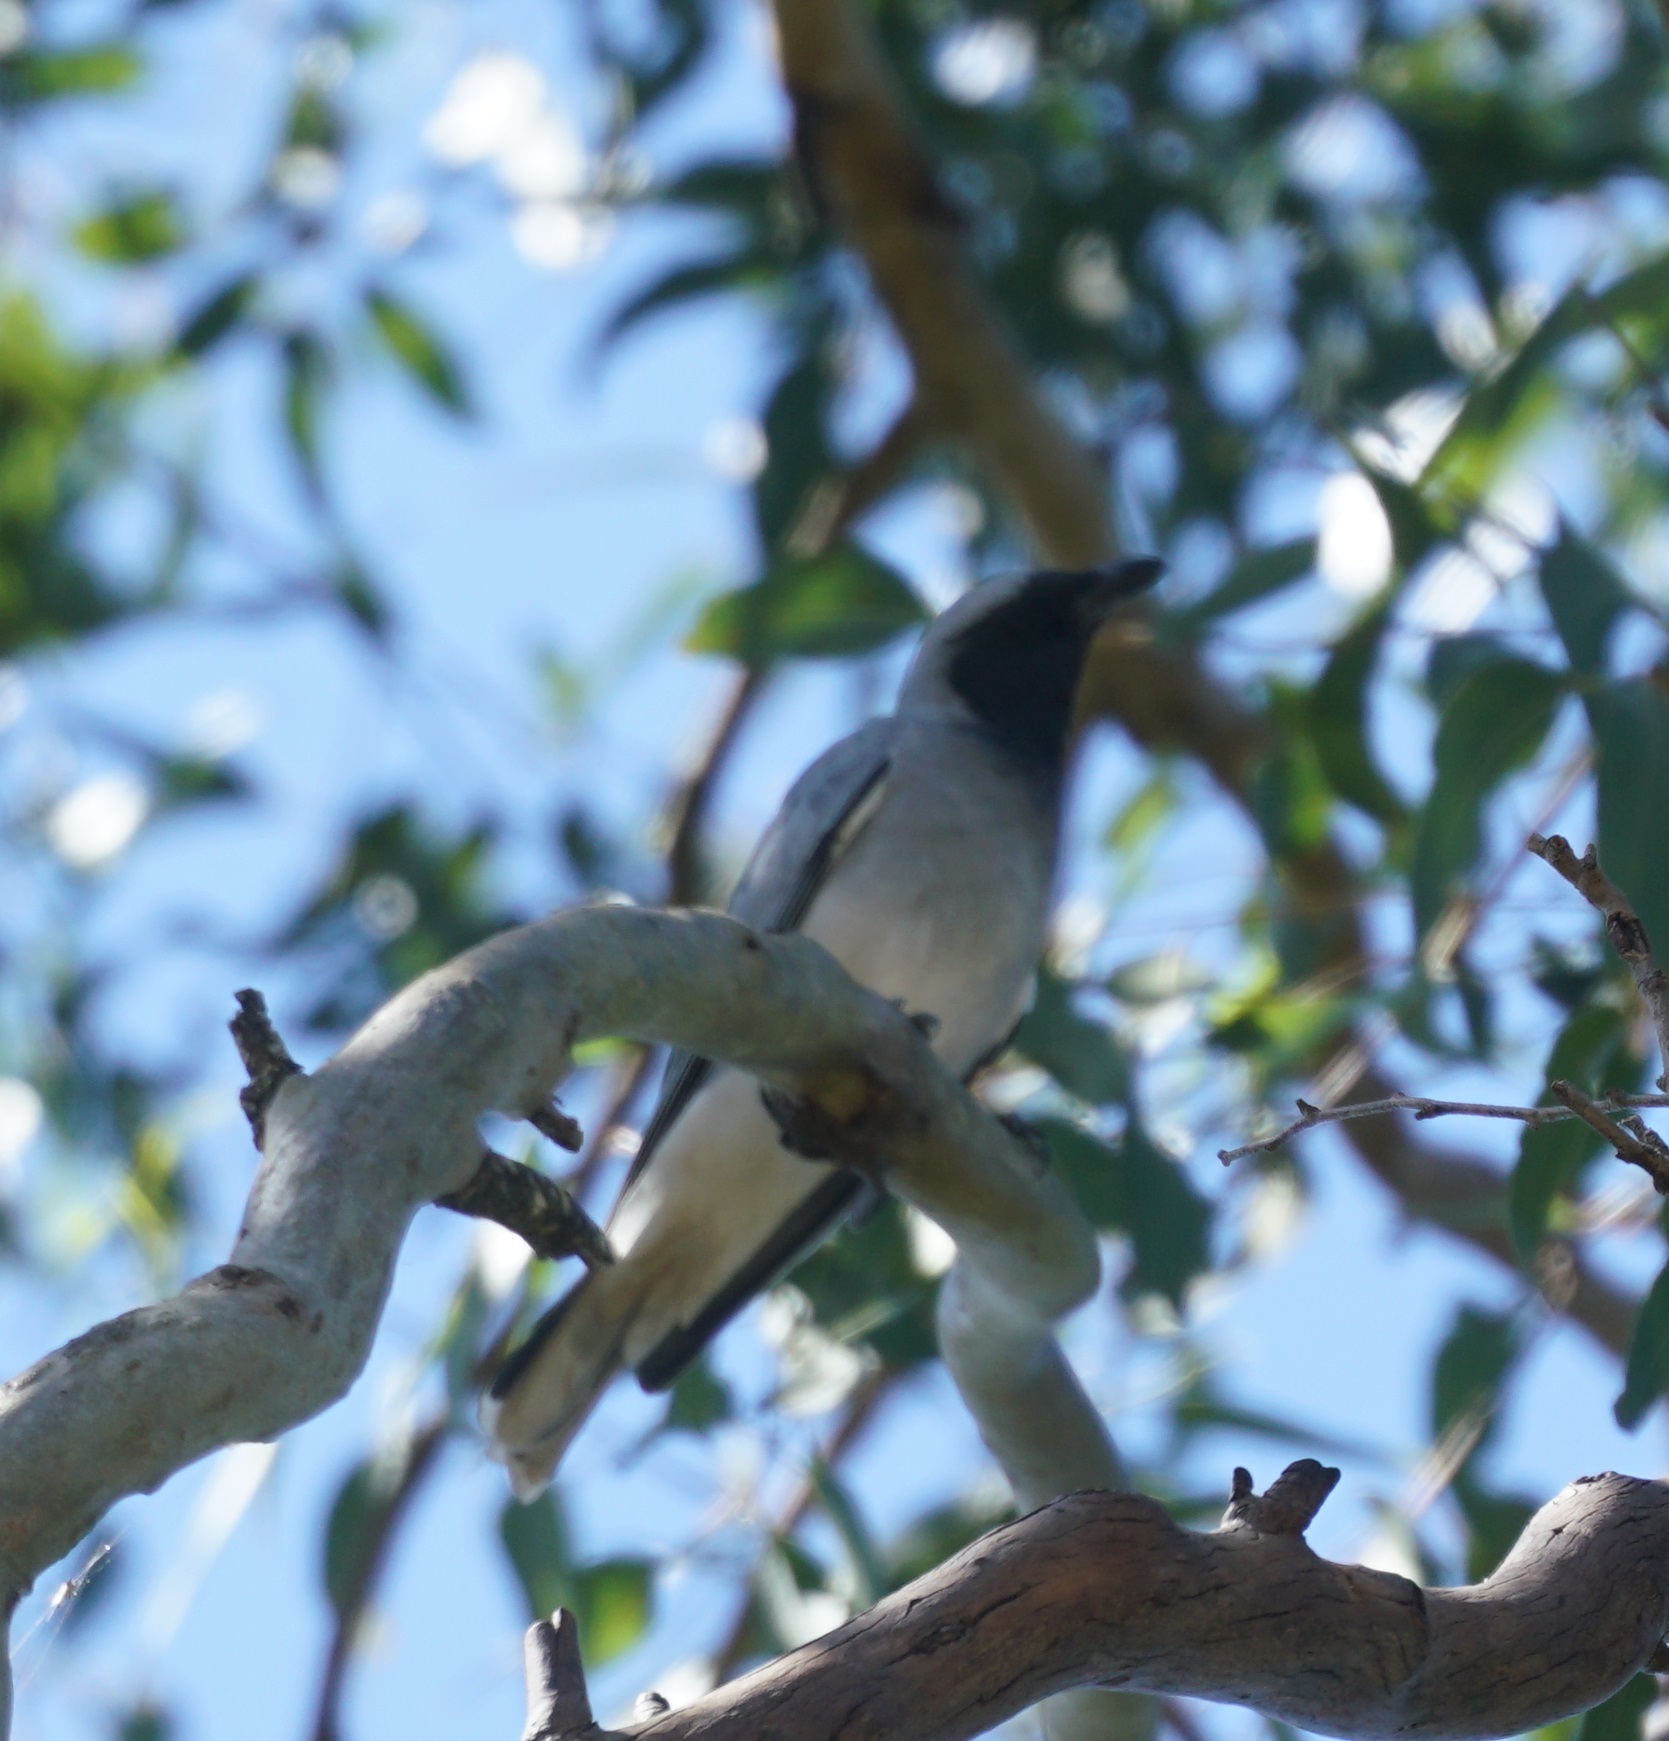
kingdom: Animalia
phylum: Chordata
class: Aves
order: Passeriformes
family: Campephagidae
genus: Coracina
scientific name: Coracina novaehollandiae
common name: Black-faced cuckooshrike
